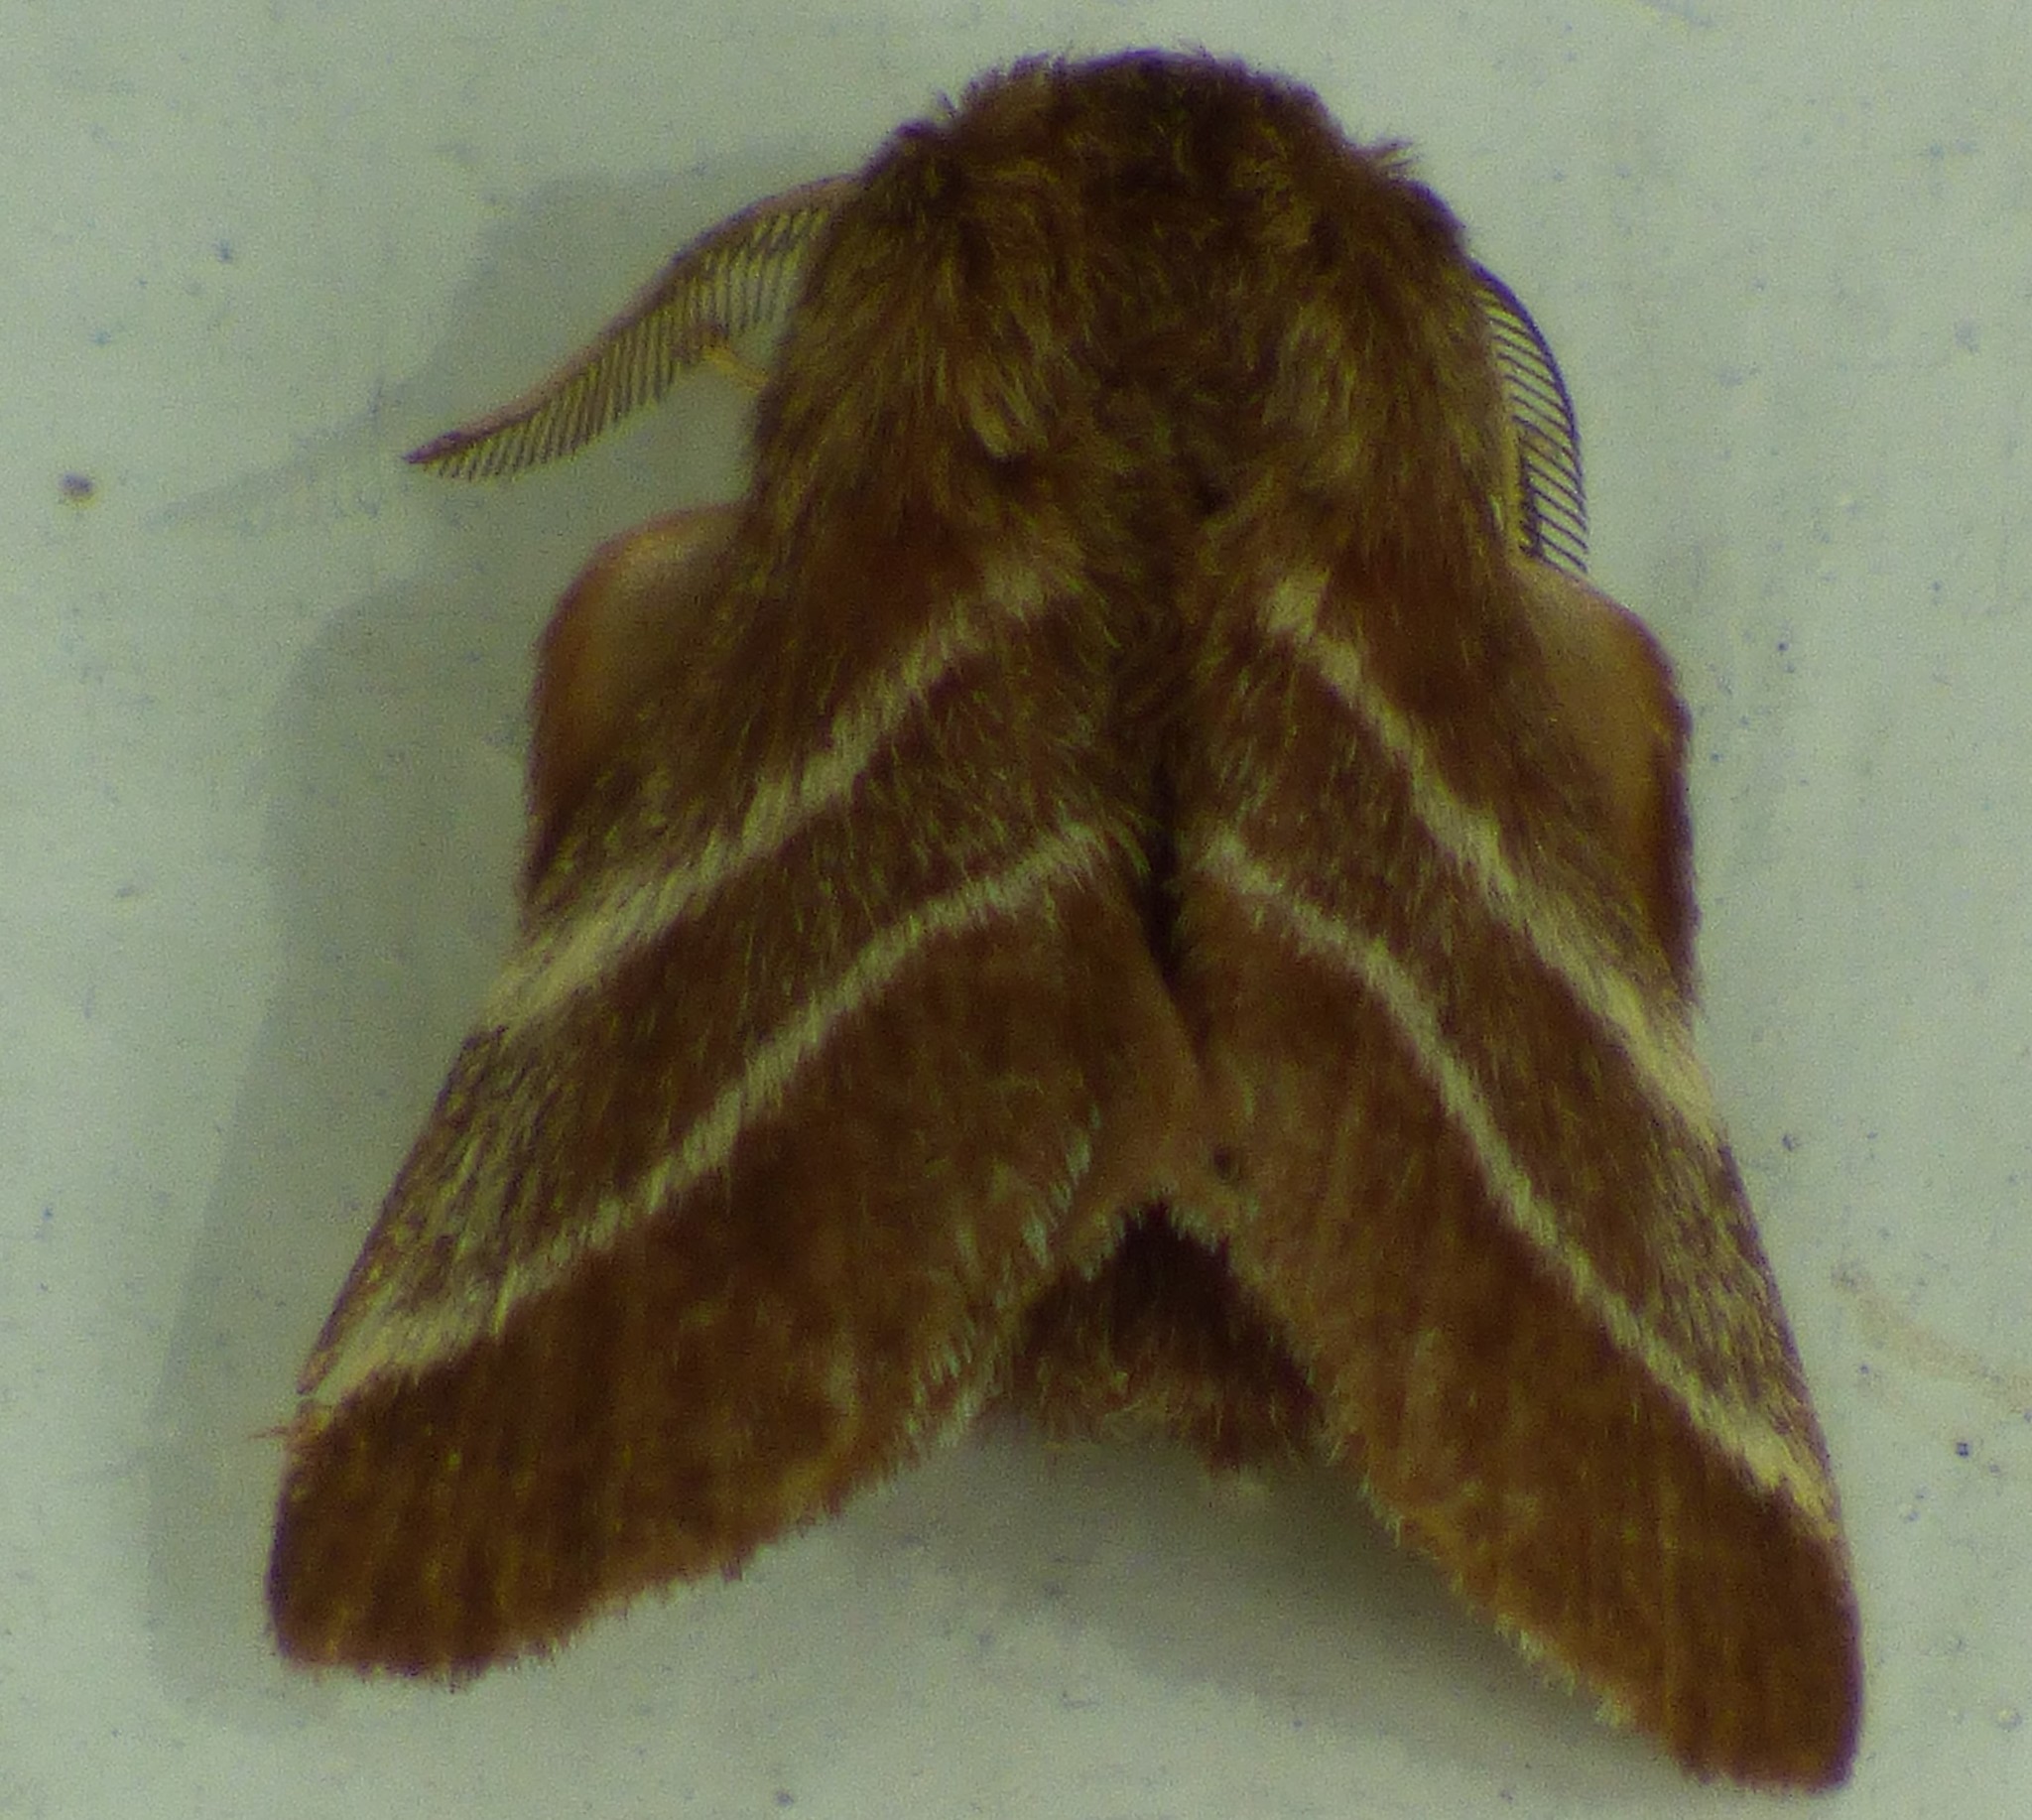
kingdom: Animalia
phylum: Arthropoda
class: Insecta
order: Lepidoptera
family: Lasiocampidae
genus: Malacosoma
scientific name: Malacosoma americana
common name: Eastern tent caterpillar moth
